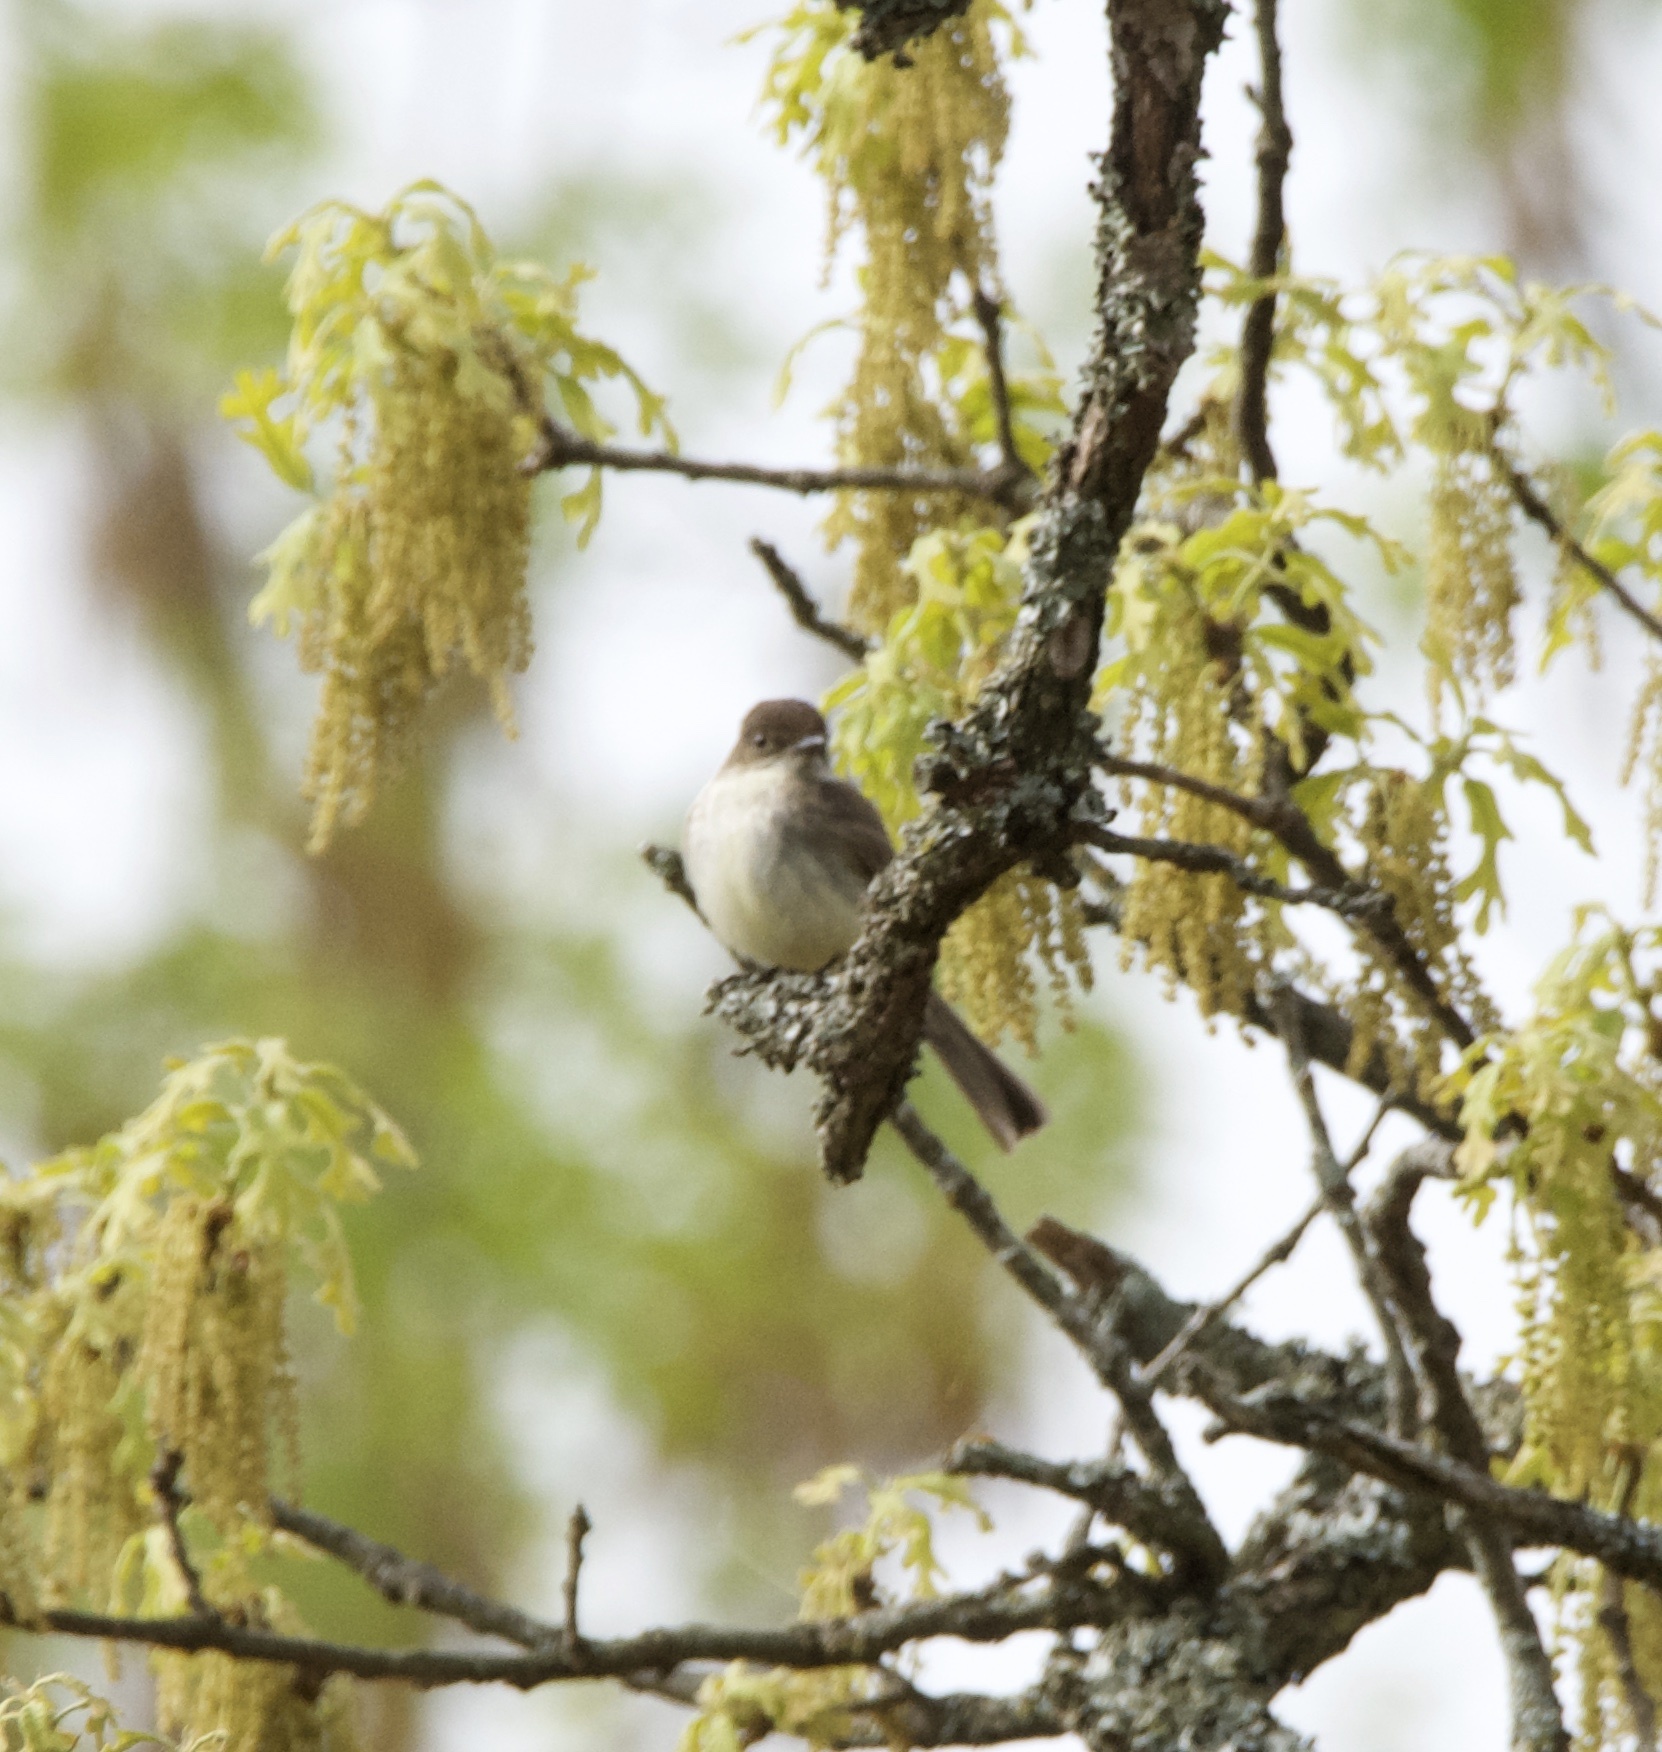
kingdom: Animalia
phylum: Chordata
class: Aves
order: Passeriformes
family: Tyrannidae
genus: Sayornis
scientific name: Sayornis phoebe
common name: Eastern phoebe
